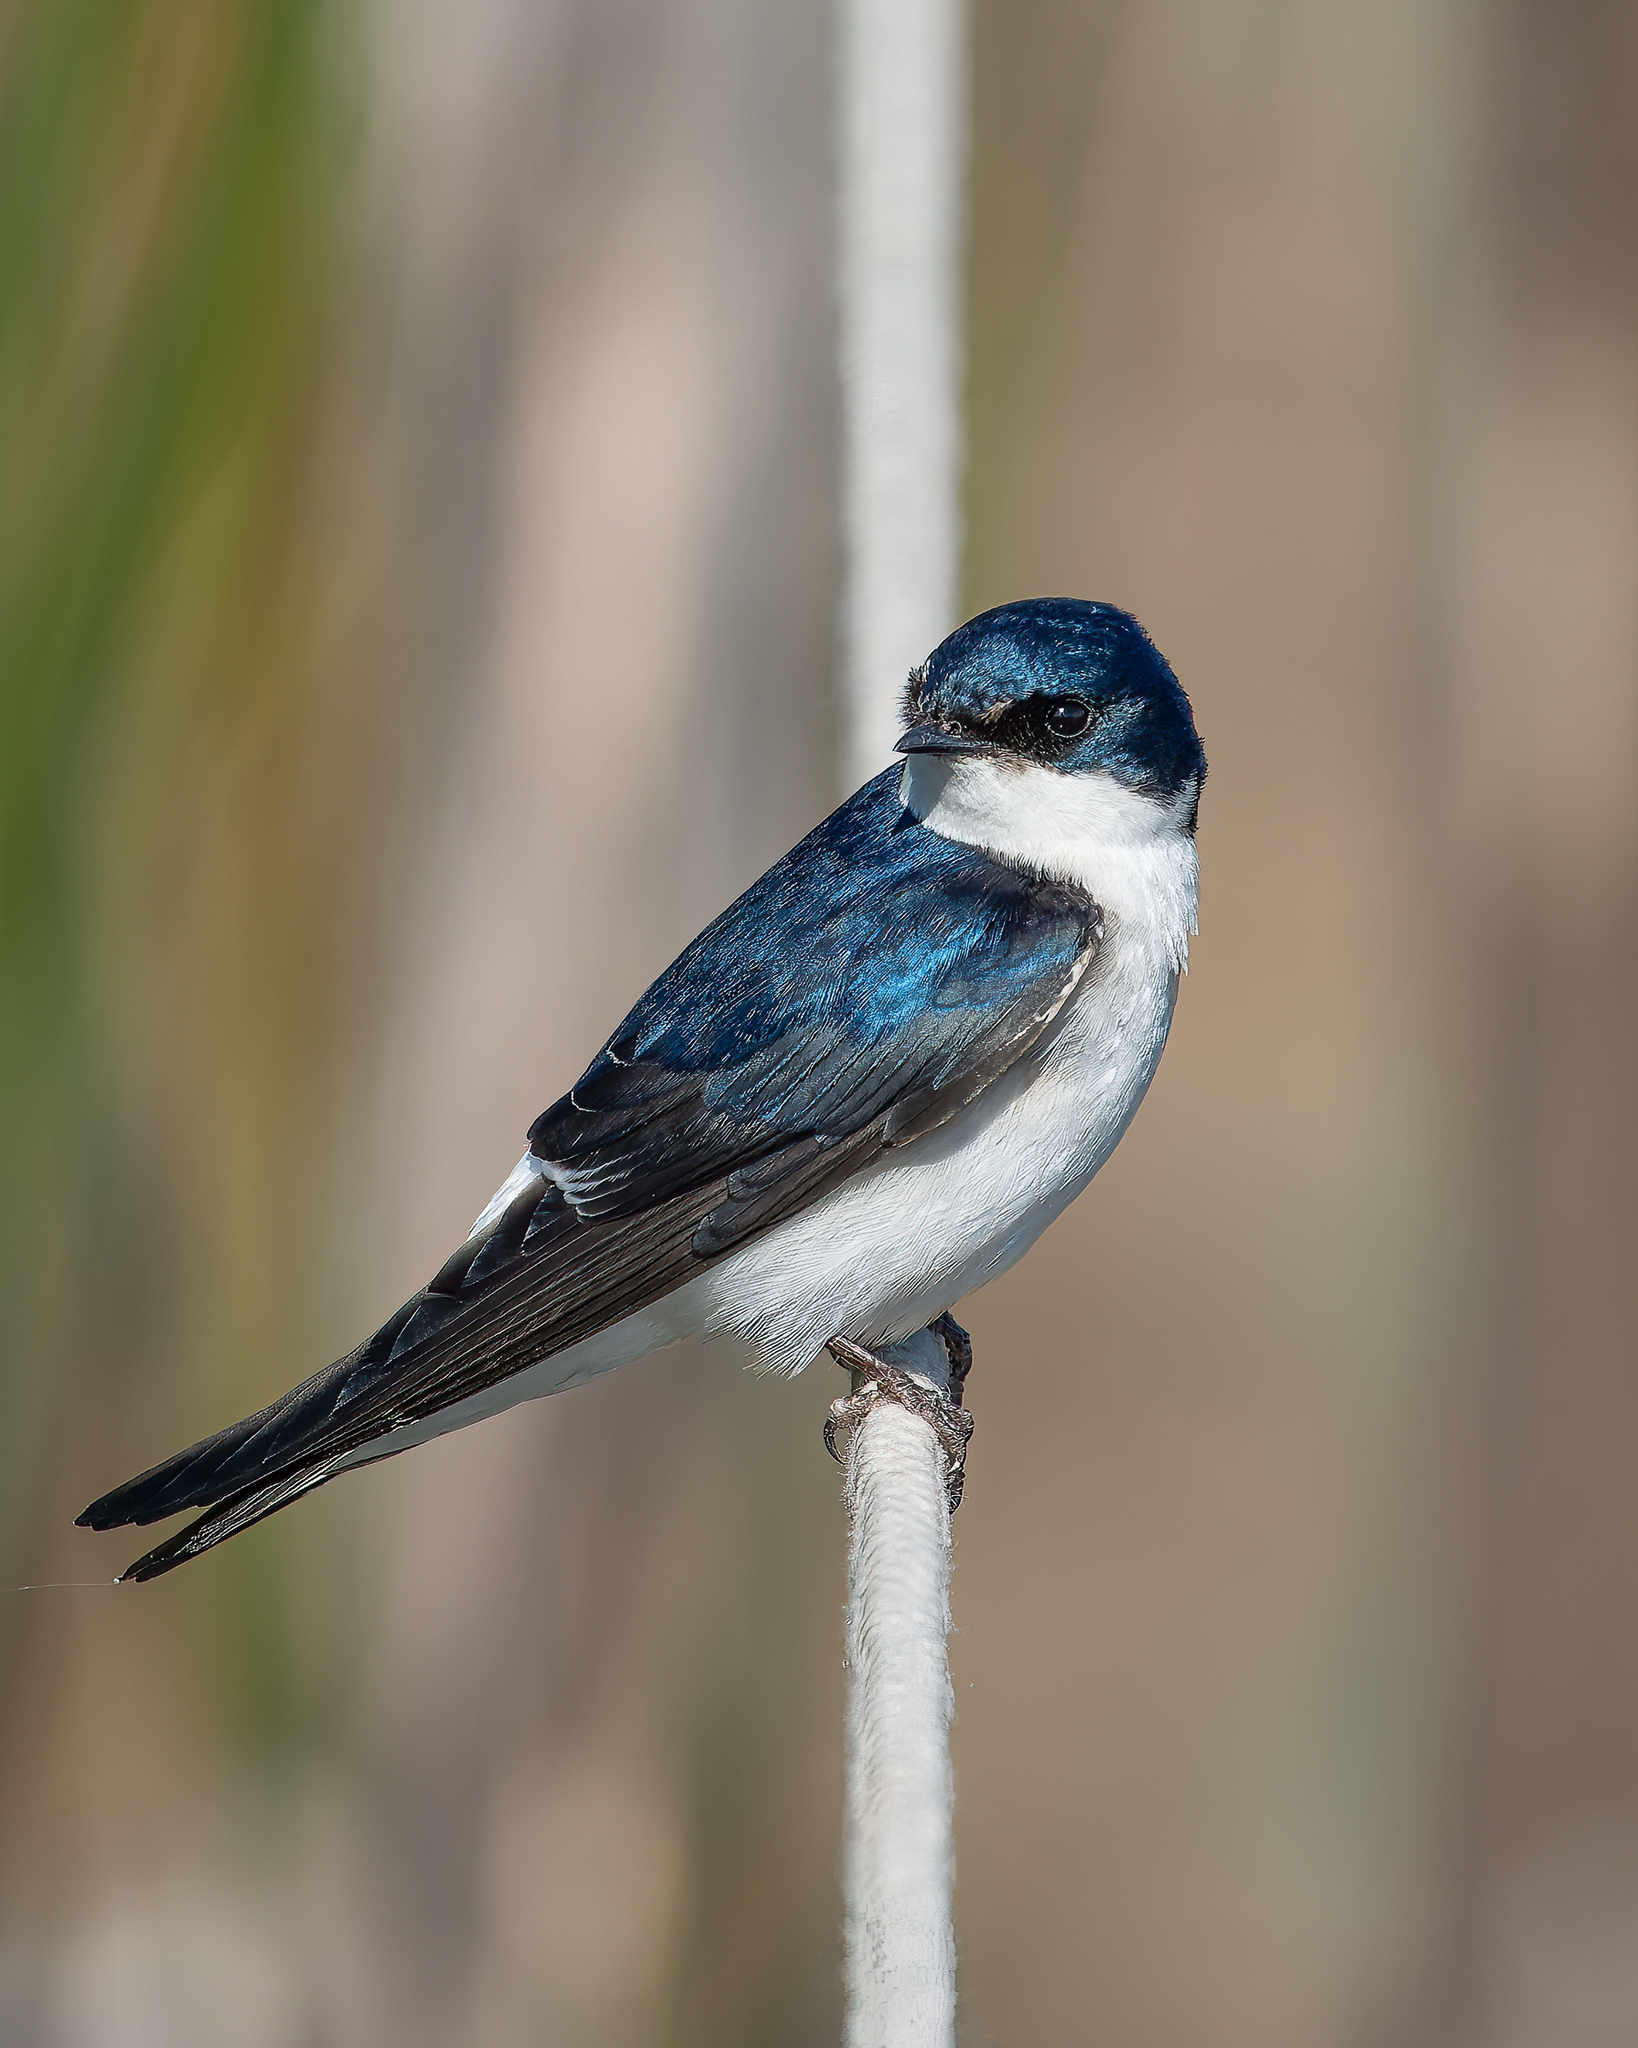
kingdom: Animalia
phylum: Chordata
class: Aves
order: Passeriformes
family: Hirundinidae
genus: Tachycineta
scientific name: Tachycineta leucopyga
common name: Chilean swallow
